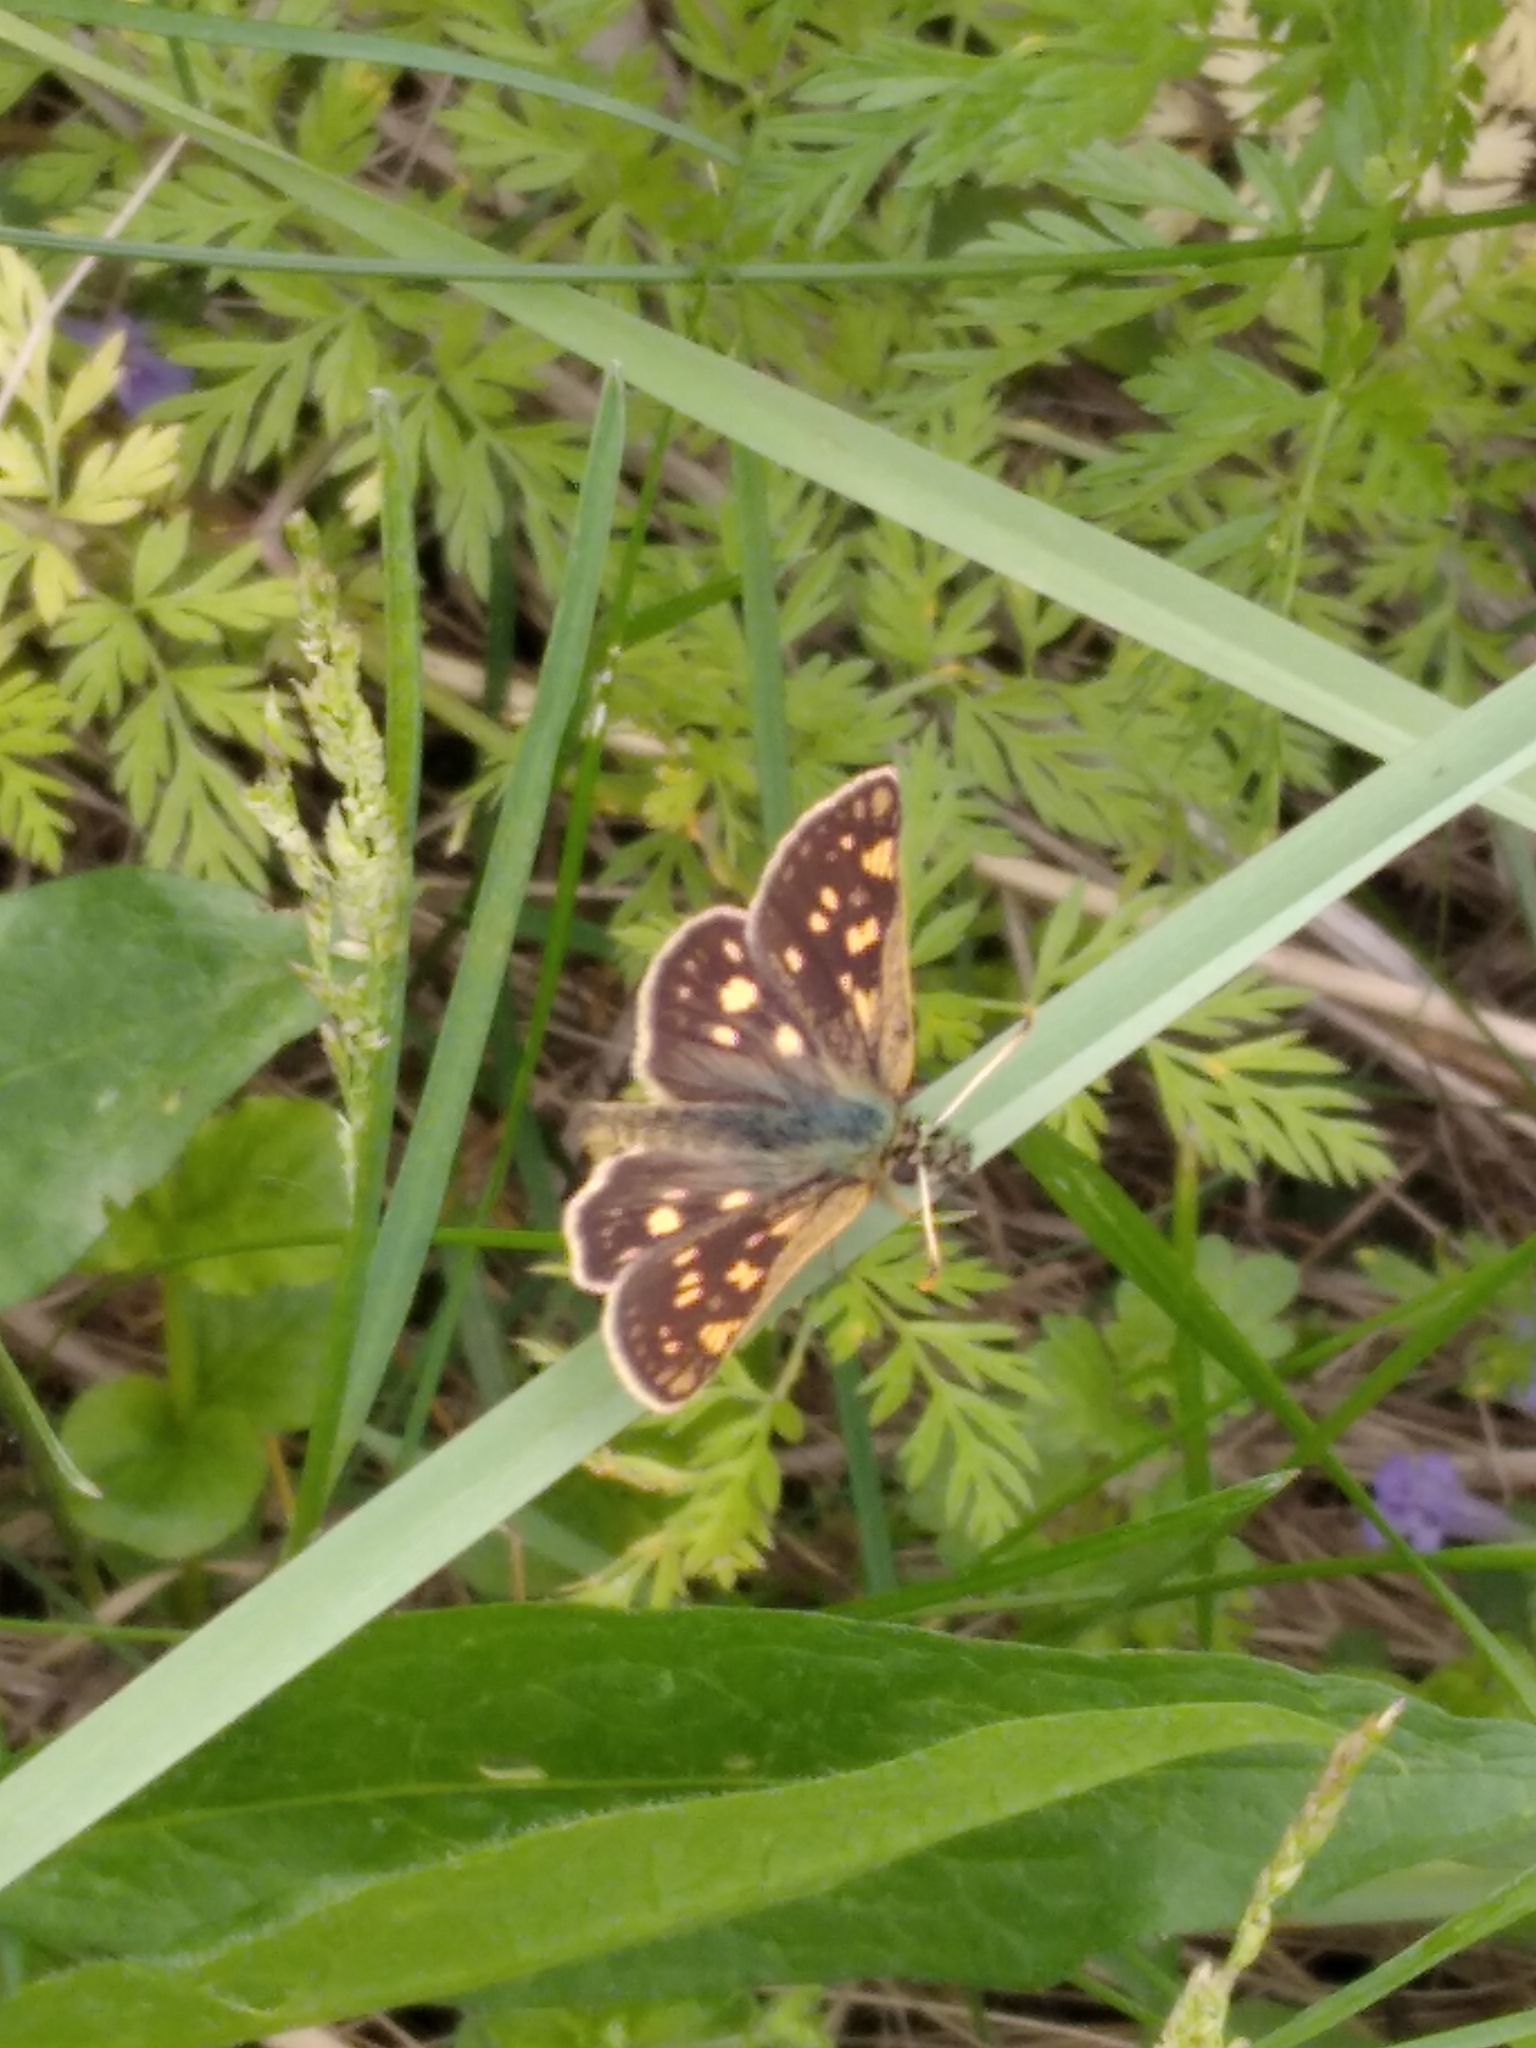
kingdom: Animalia
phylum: Arthropoda
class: Insecta
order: Lepidoptera
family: Hesperiidae
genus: Carterocephalus
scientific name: Carterocephalus palaemon
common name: Chequered skipper
